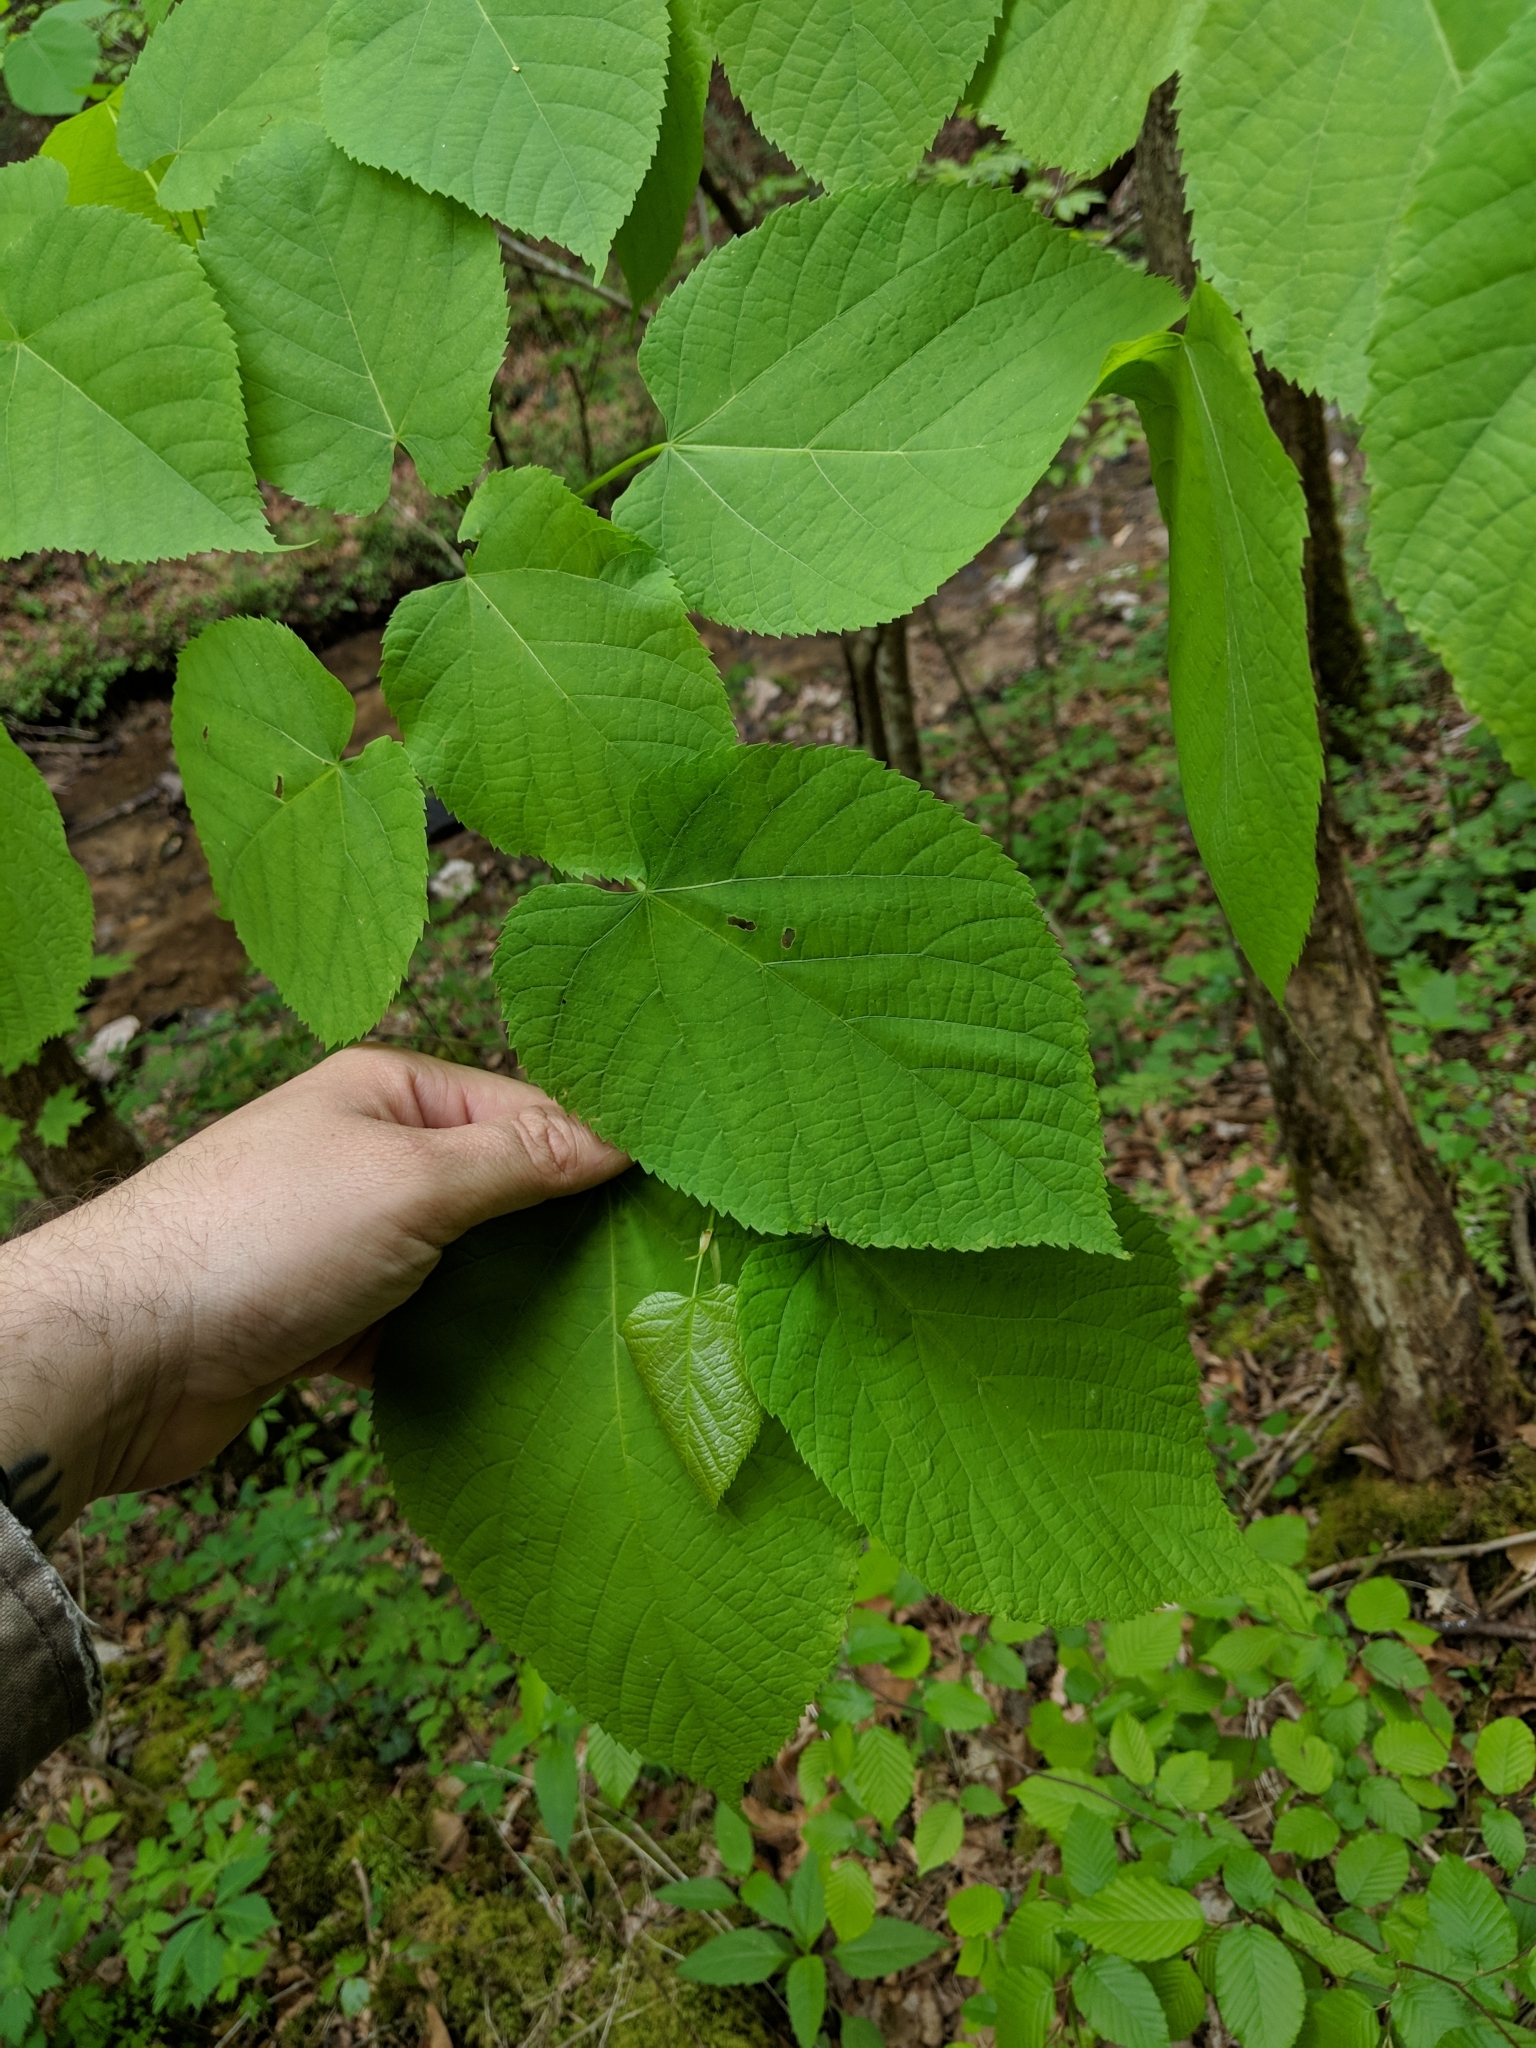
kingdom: Plantae
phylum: Tracheophyta
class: Magnoliopsida
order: Malvales
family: Malvaceae
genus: Tilia
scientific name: Tilia americana
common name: Basswood
